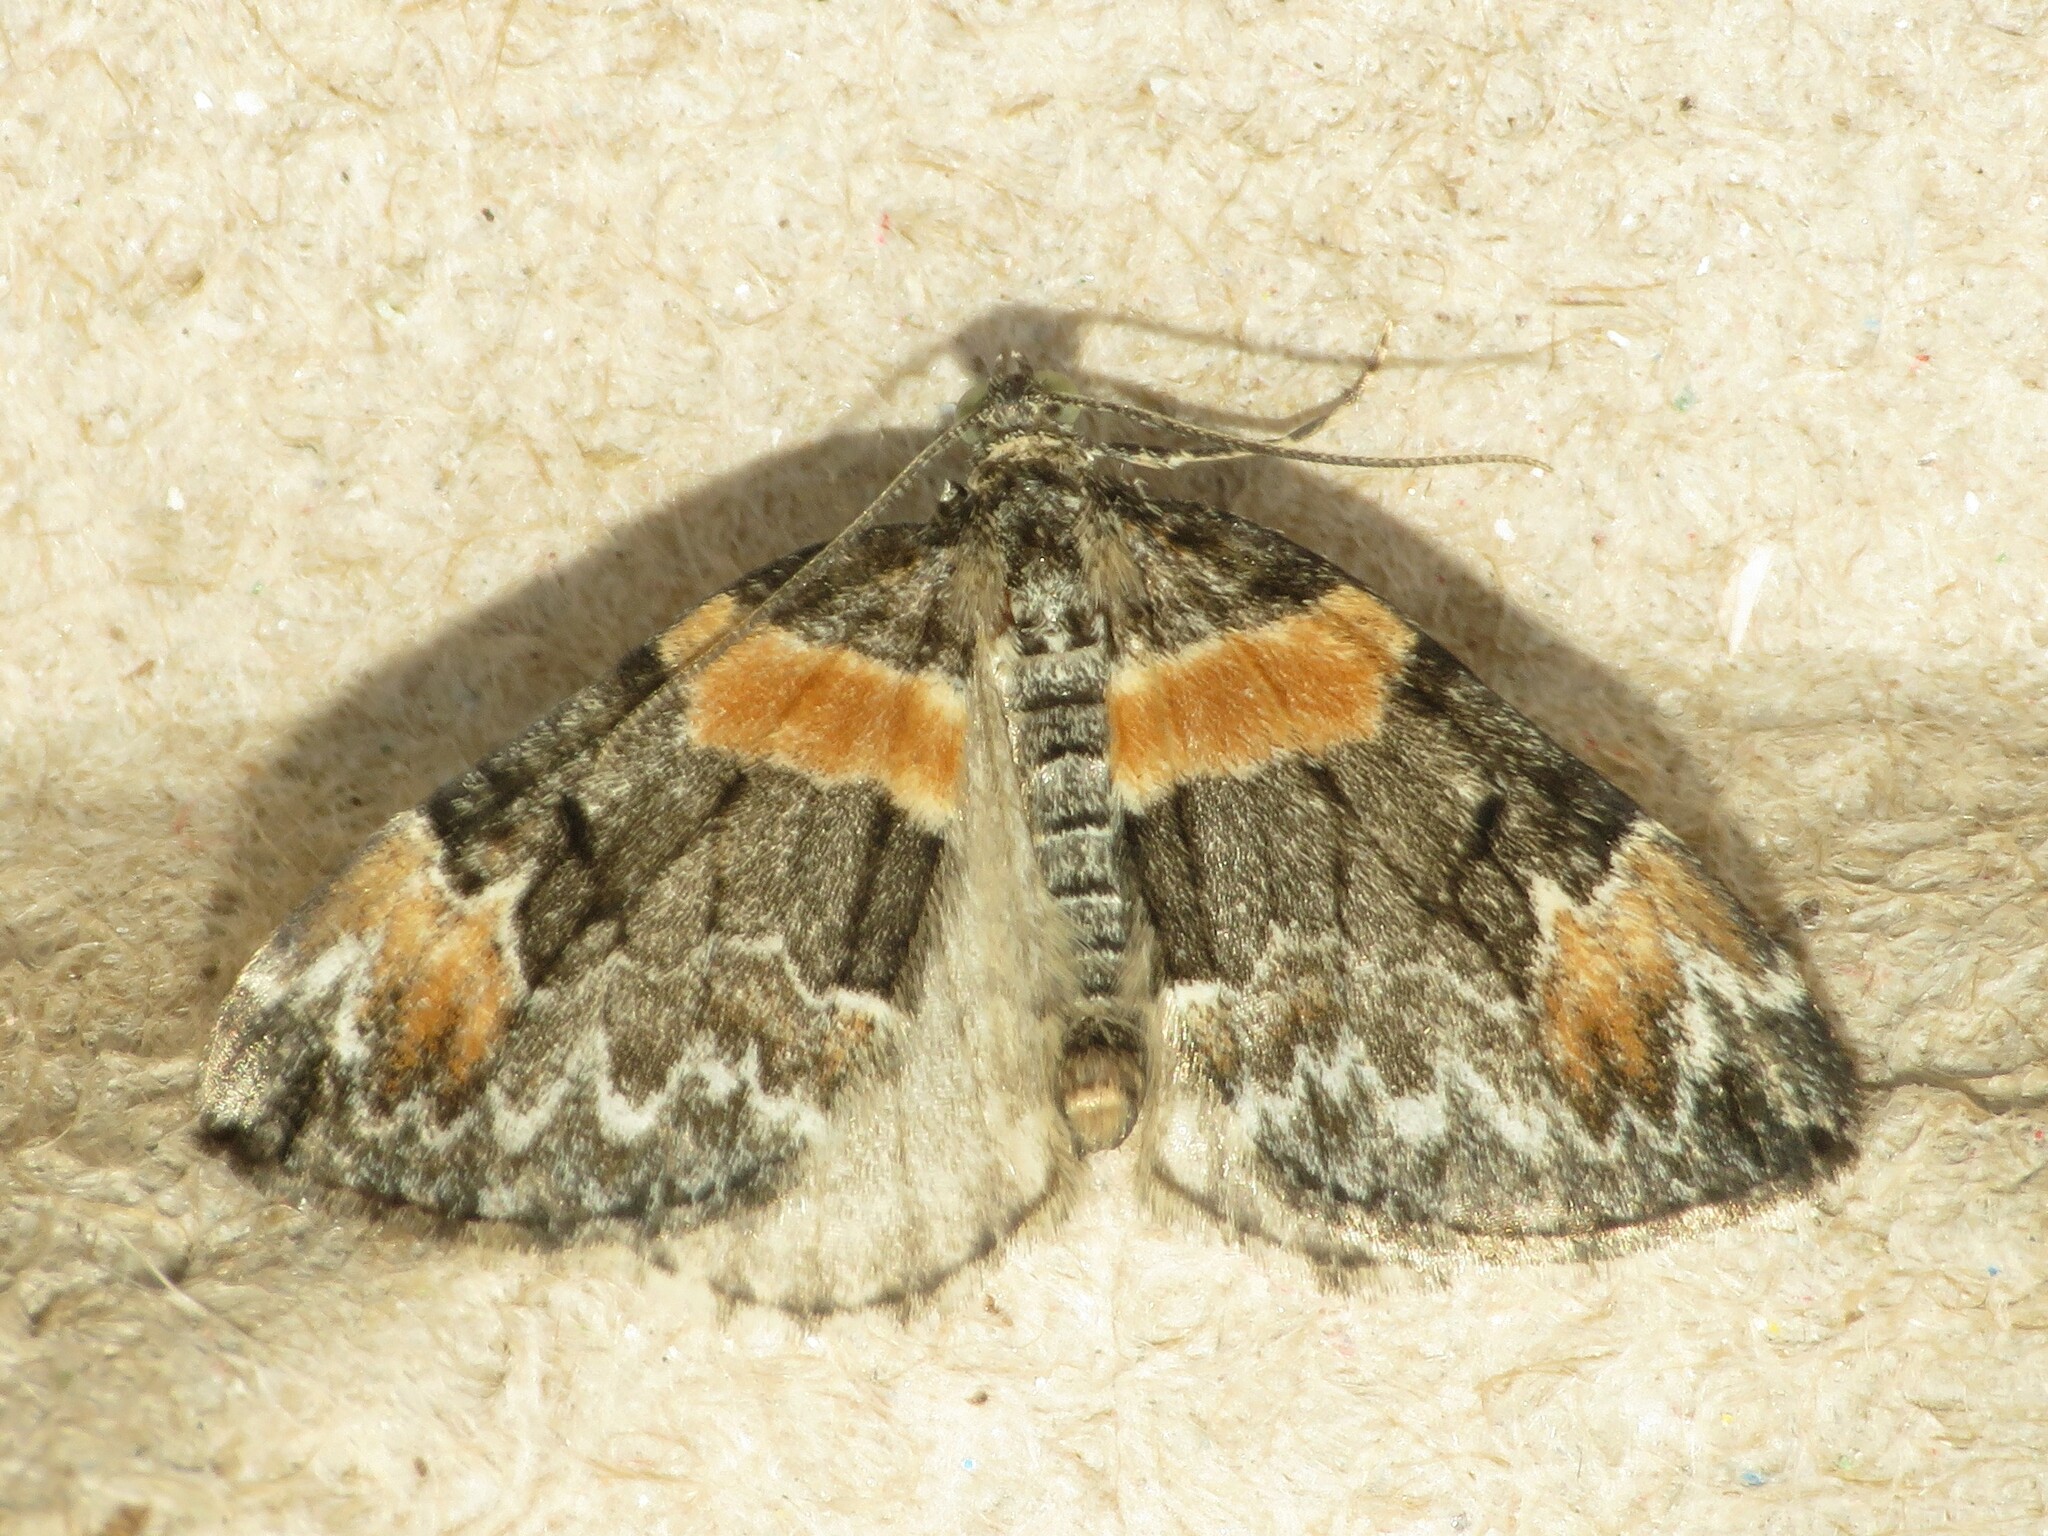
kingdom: Animalia
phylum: Arthropoda
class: Insecta
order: Lepidoptera
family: Geometridae
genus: Dysstroma
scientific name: Dysstroma hersiliata
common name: Orange-barred carpet
